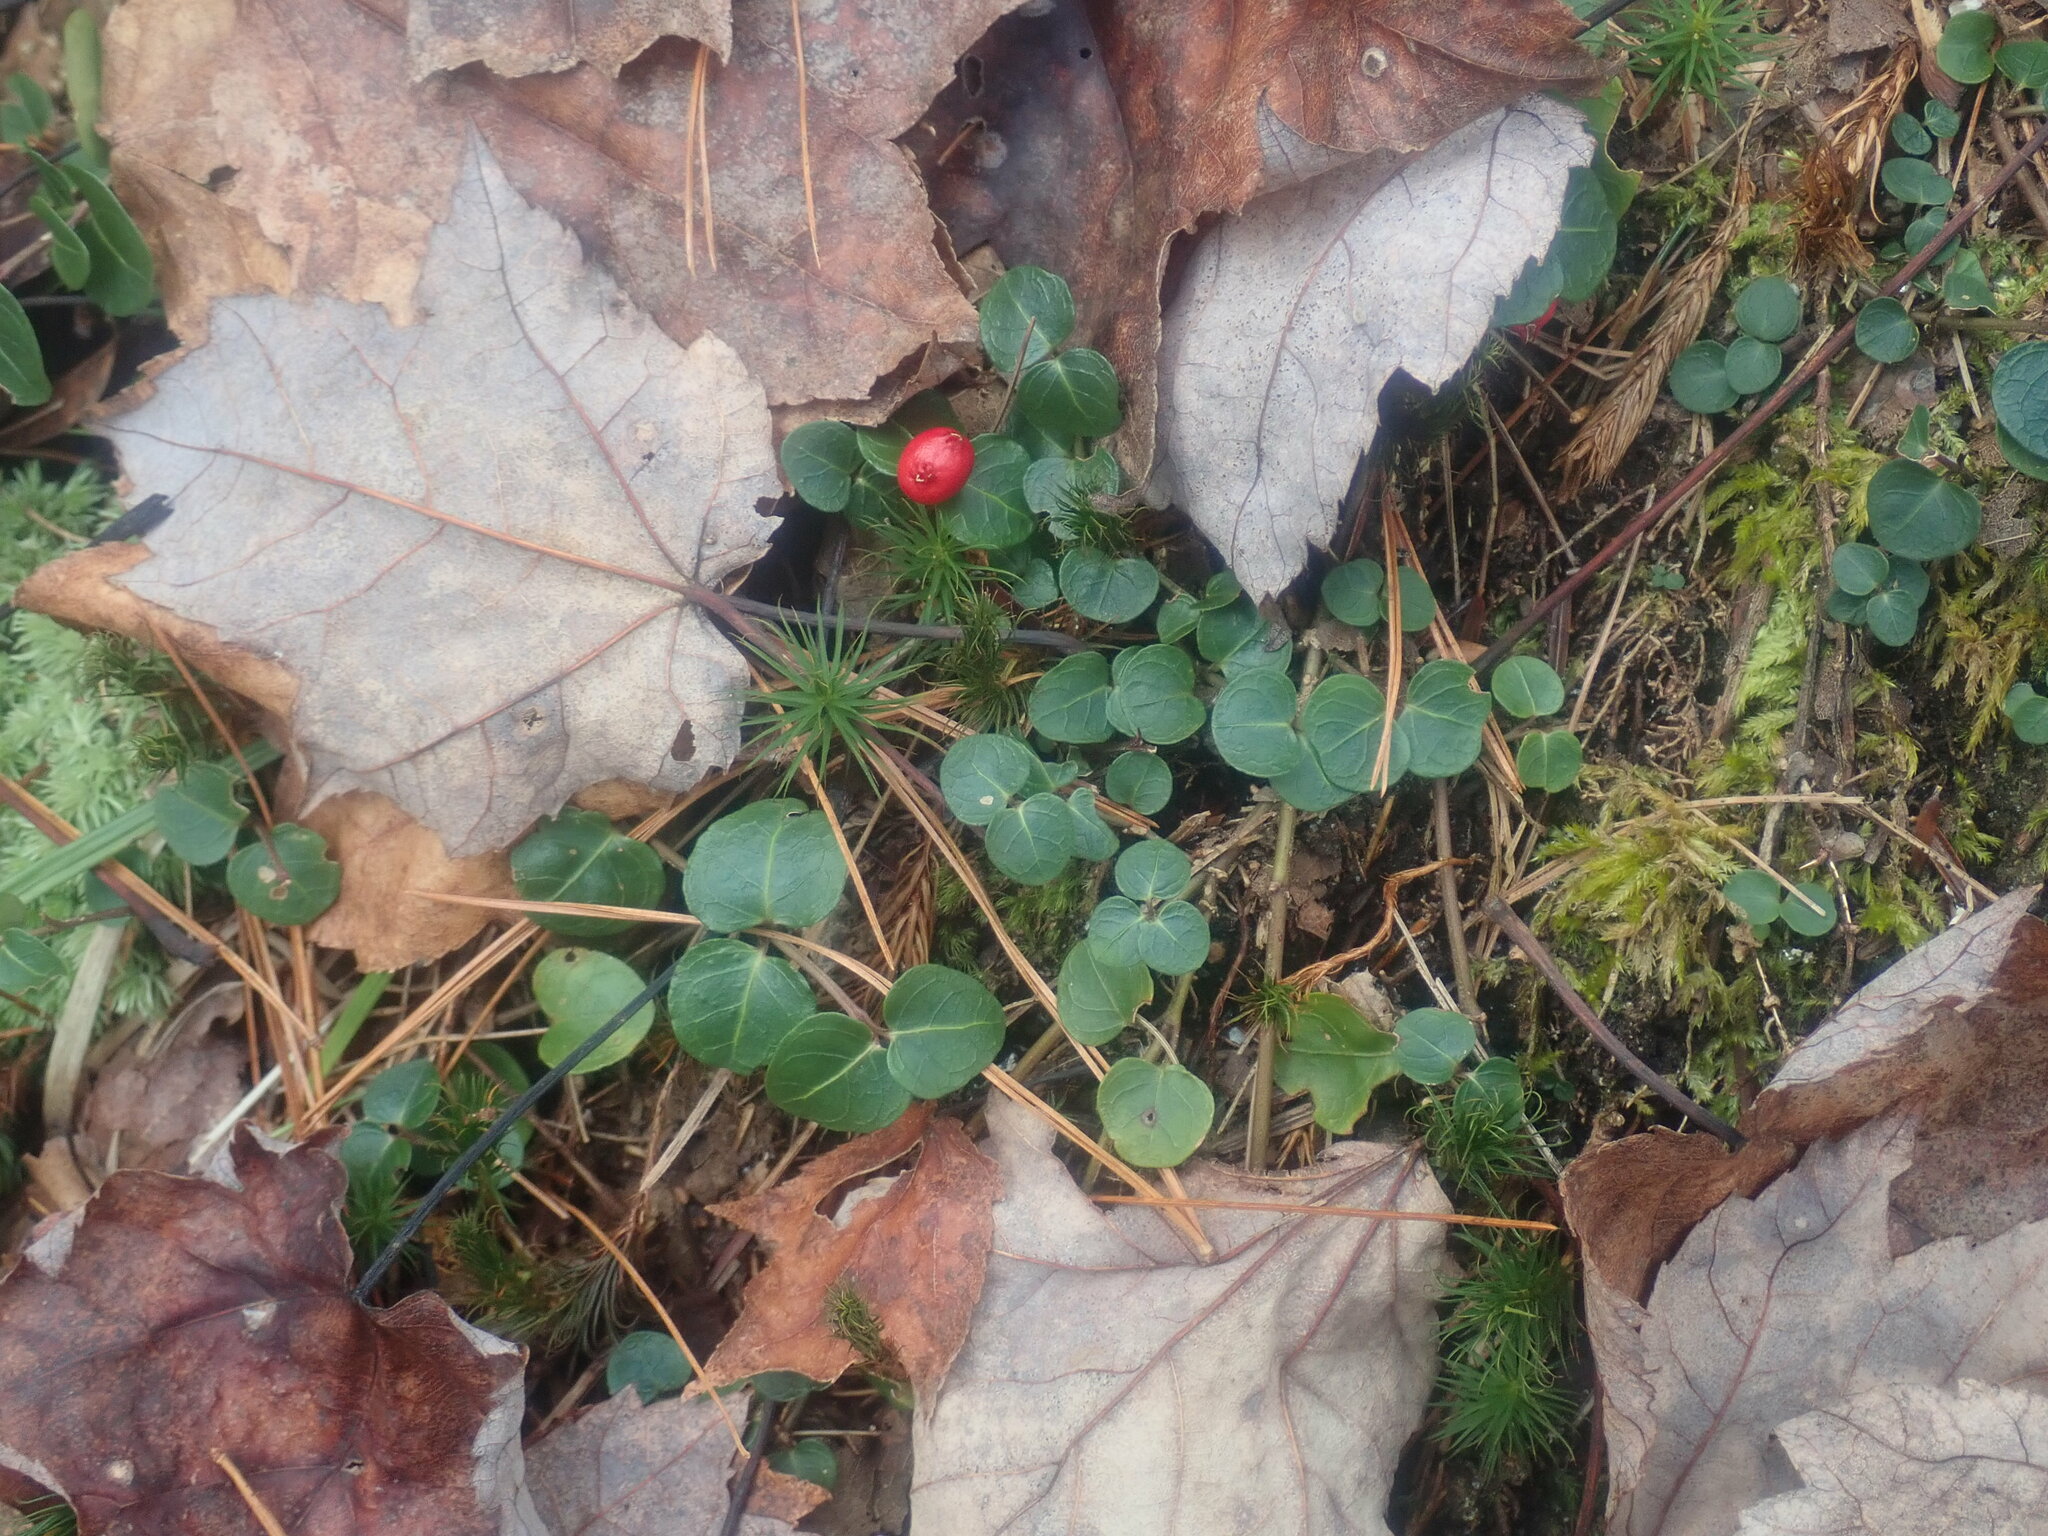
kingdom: Plantae
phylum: Tracheophyta
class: Magnoliopsida
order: Gentianales
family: Rubiaceae
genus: Mitchella
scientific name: Mitchella repens
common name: Partridge-berry
